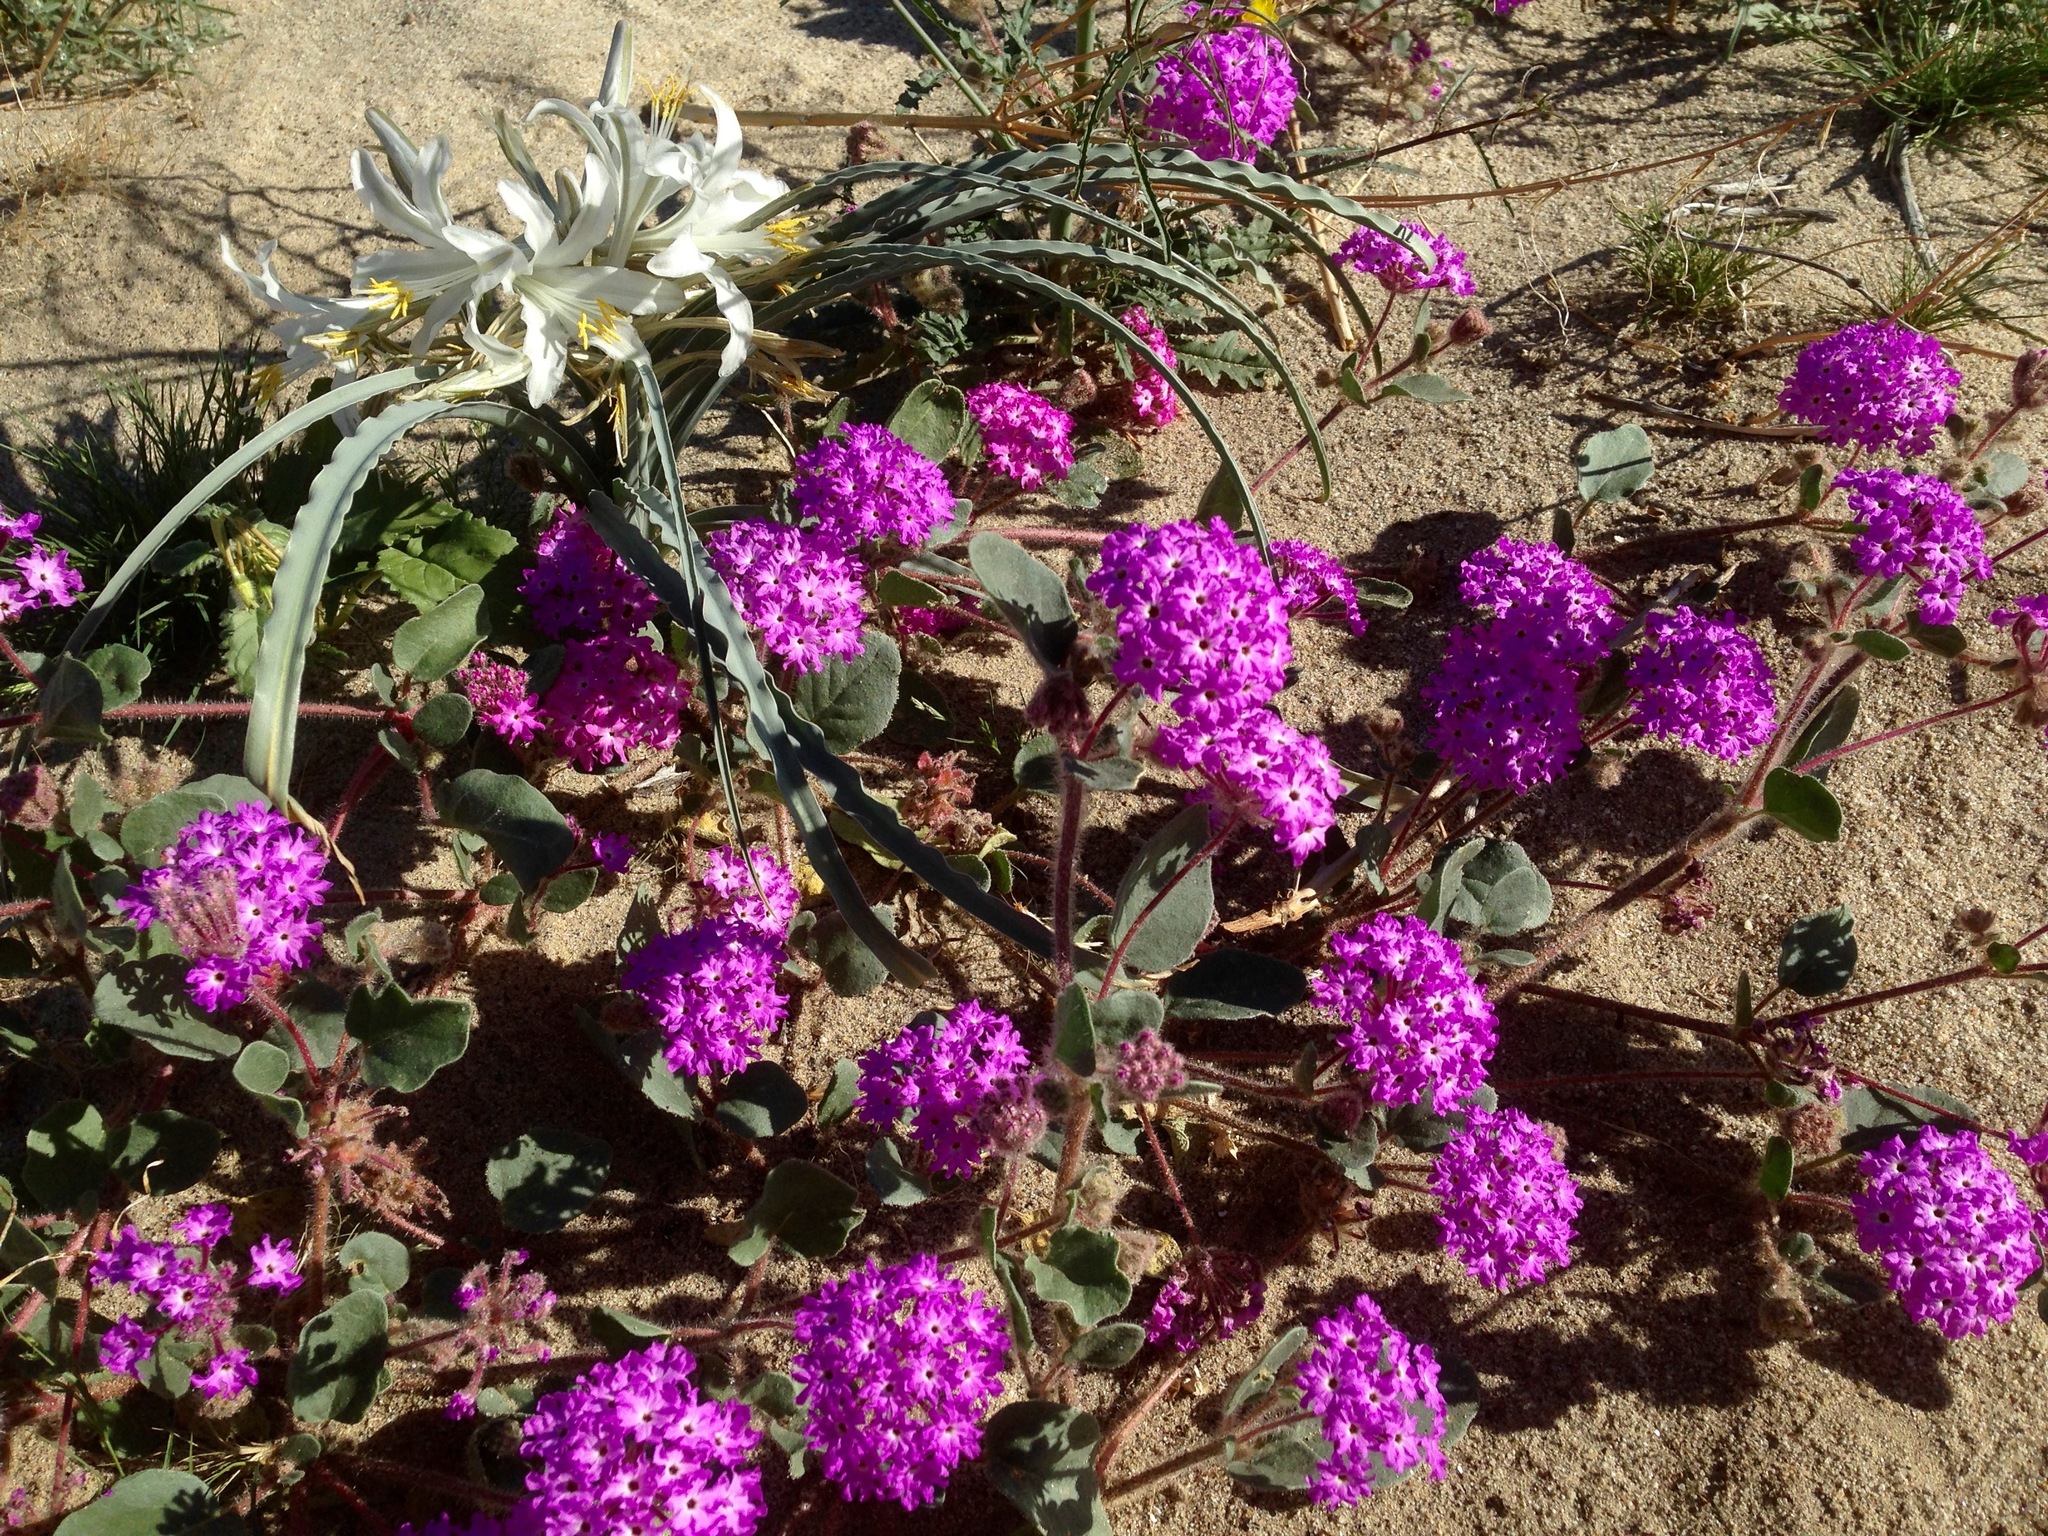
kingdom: Plantae
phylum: Tracheophyta
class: Liliopsida
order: Asparagales
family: Asparagaceae
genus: Hesperocallis
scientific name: Hesperocallis undulata
